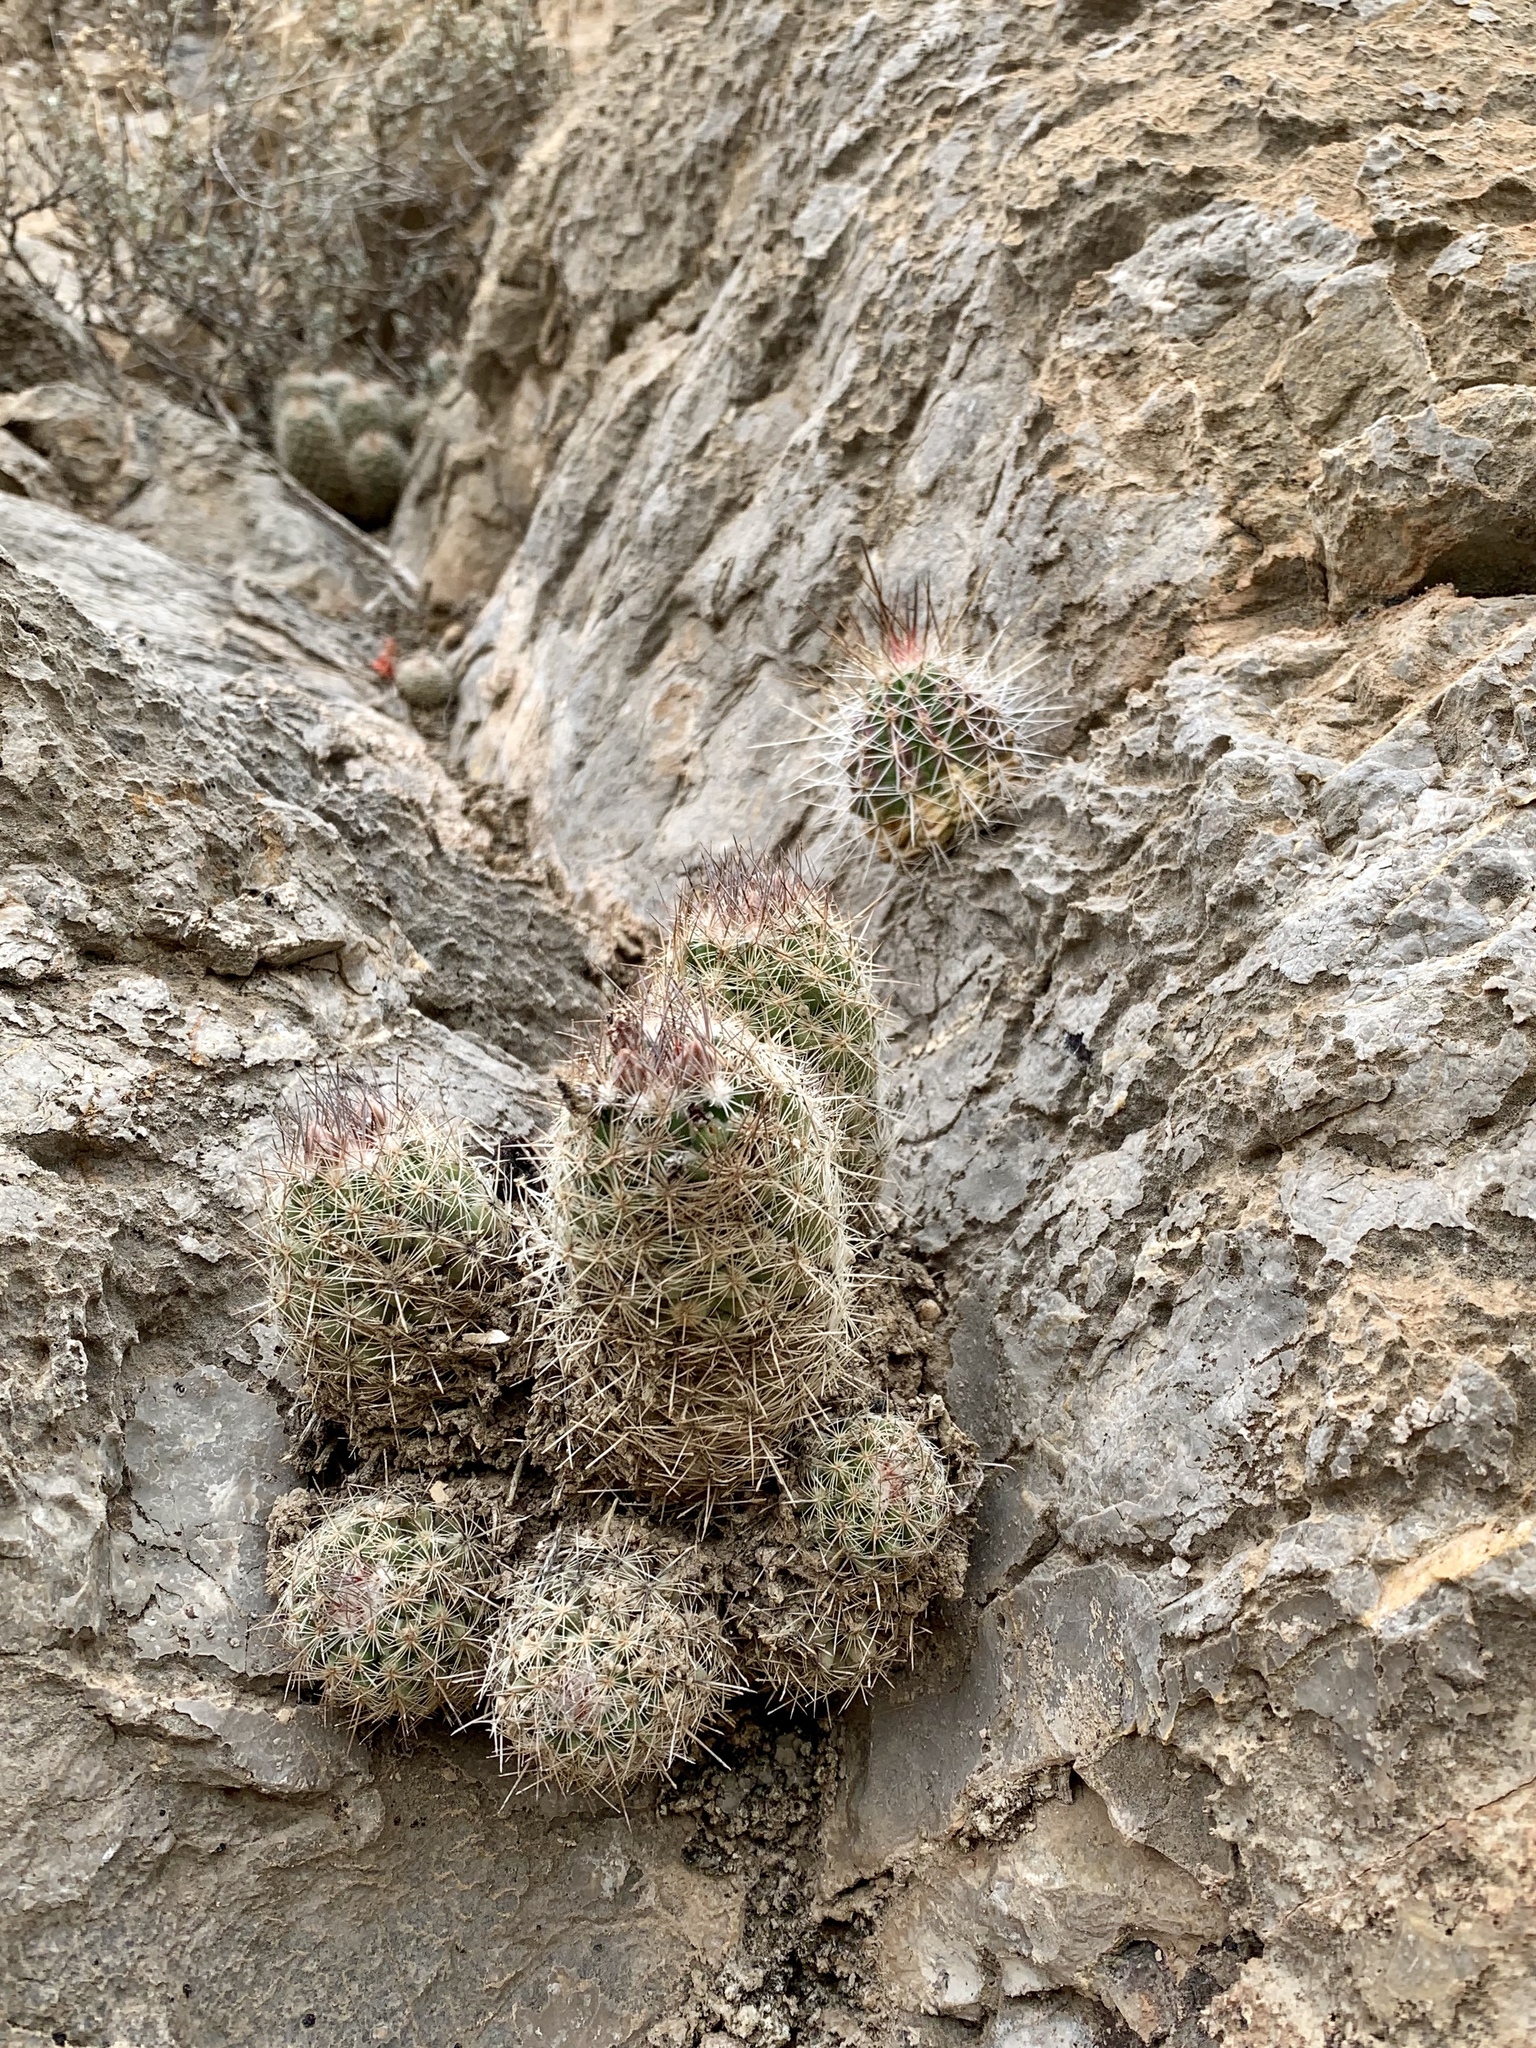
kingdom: Plantae
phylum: Tracheophyta
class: Magnoliopsida
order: Caryophyllales
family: Cactaceae
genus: Echinocereus
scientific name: Echinocereus stramineus
